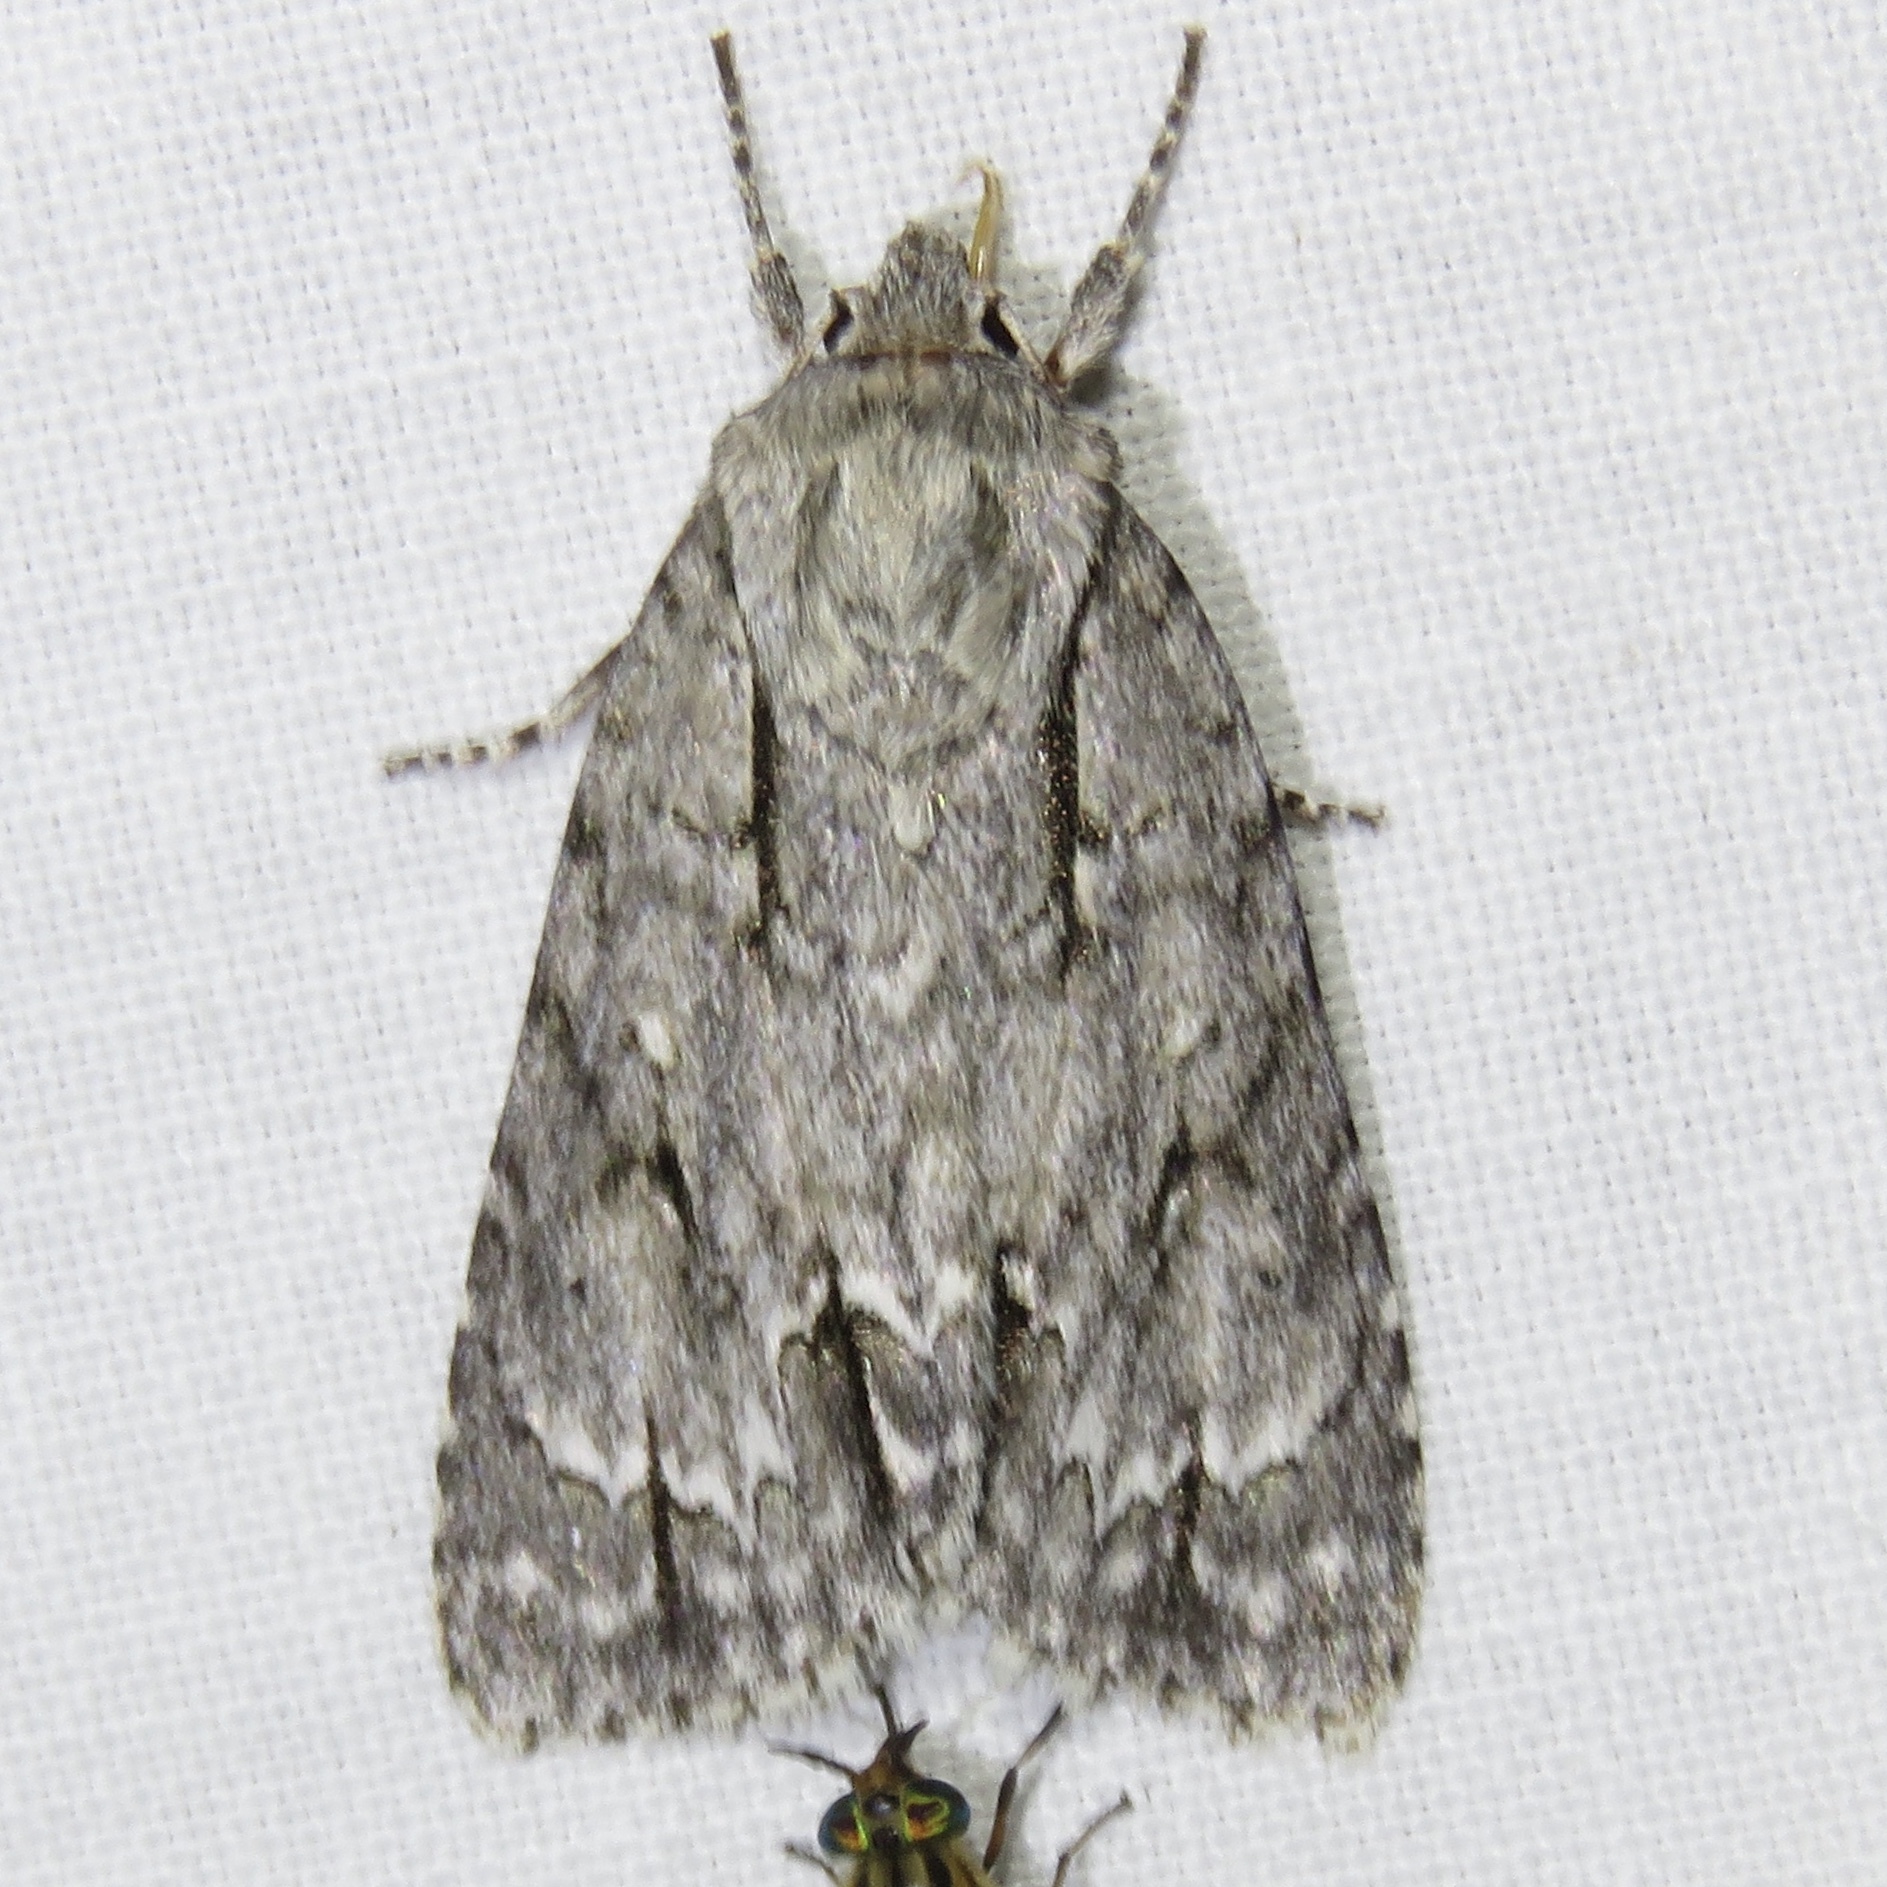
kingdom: Animalia
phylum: Arthropoda
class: Insecta
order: Lepidoptera
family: Noctuidae
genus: Acronicta
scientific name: Acronicta laetifica
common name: Pleasant dagger
